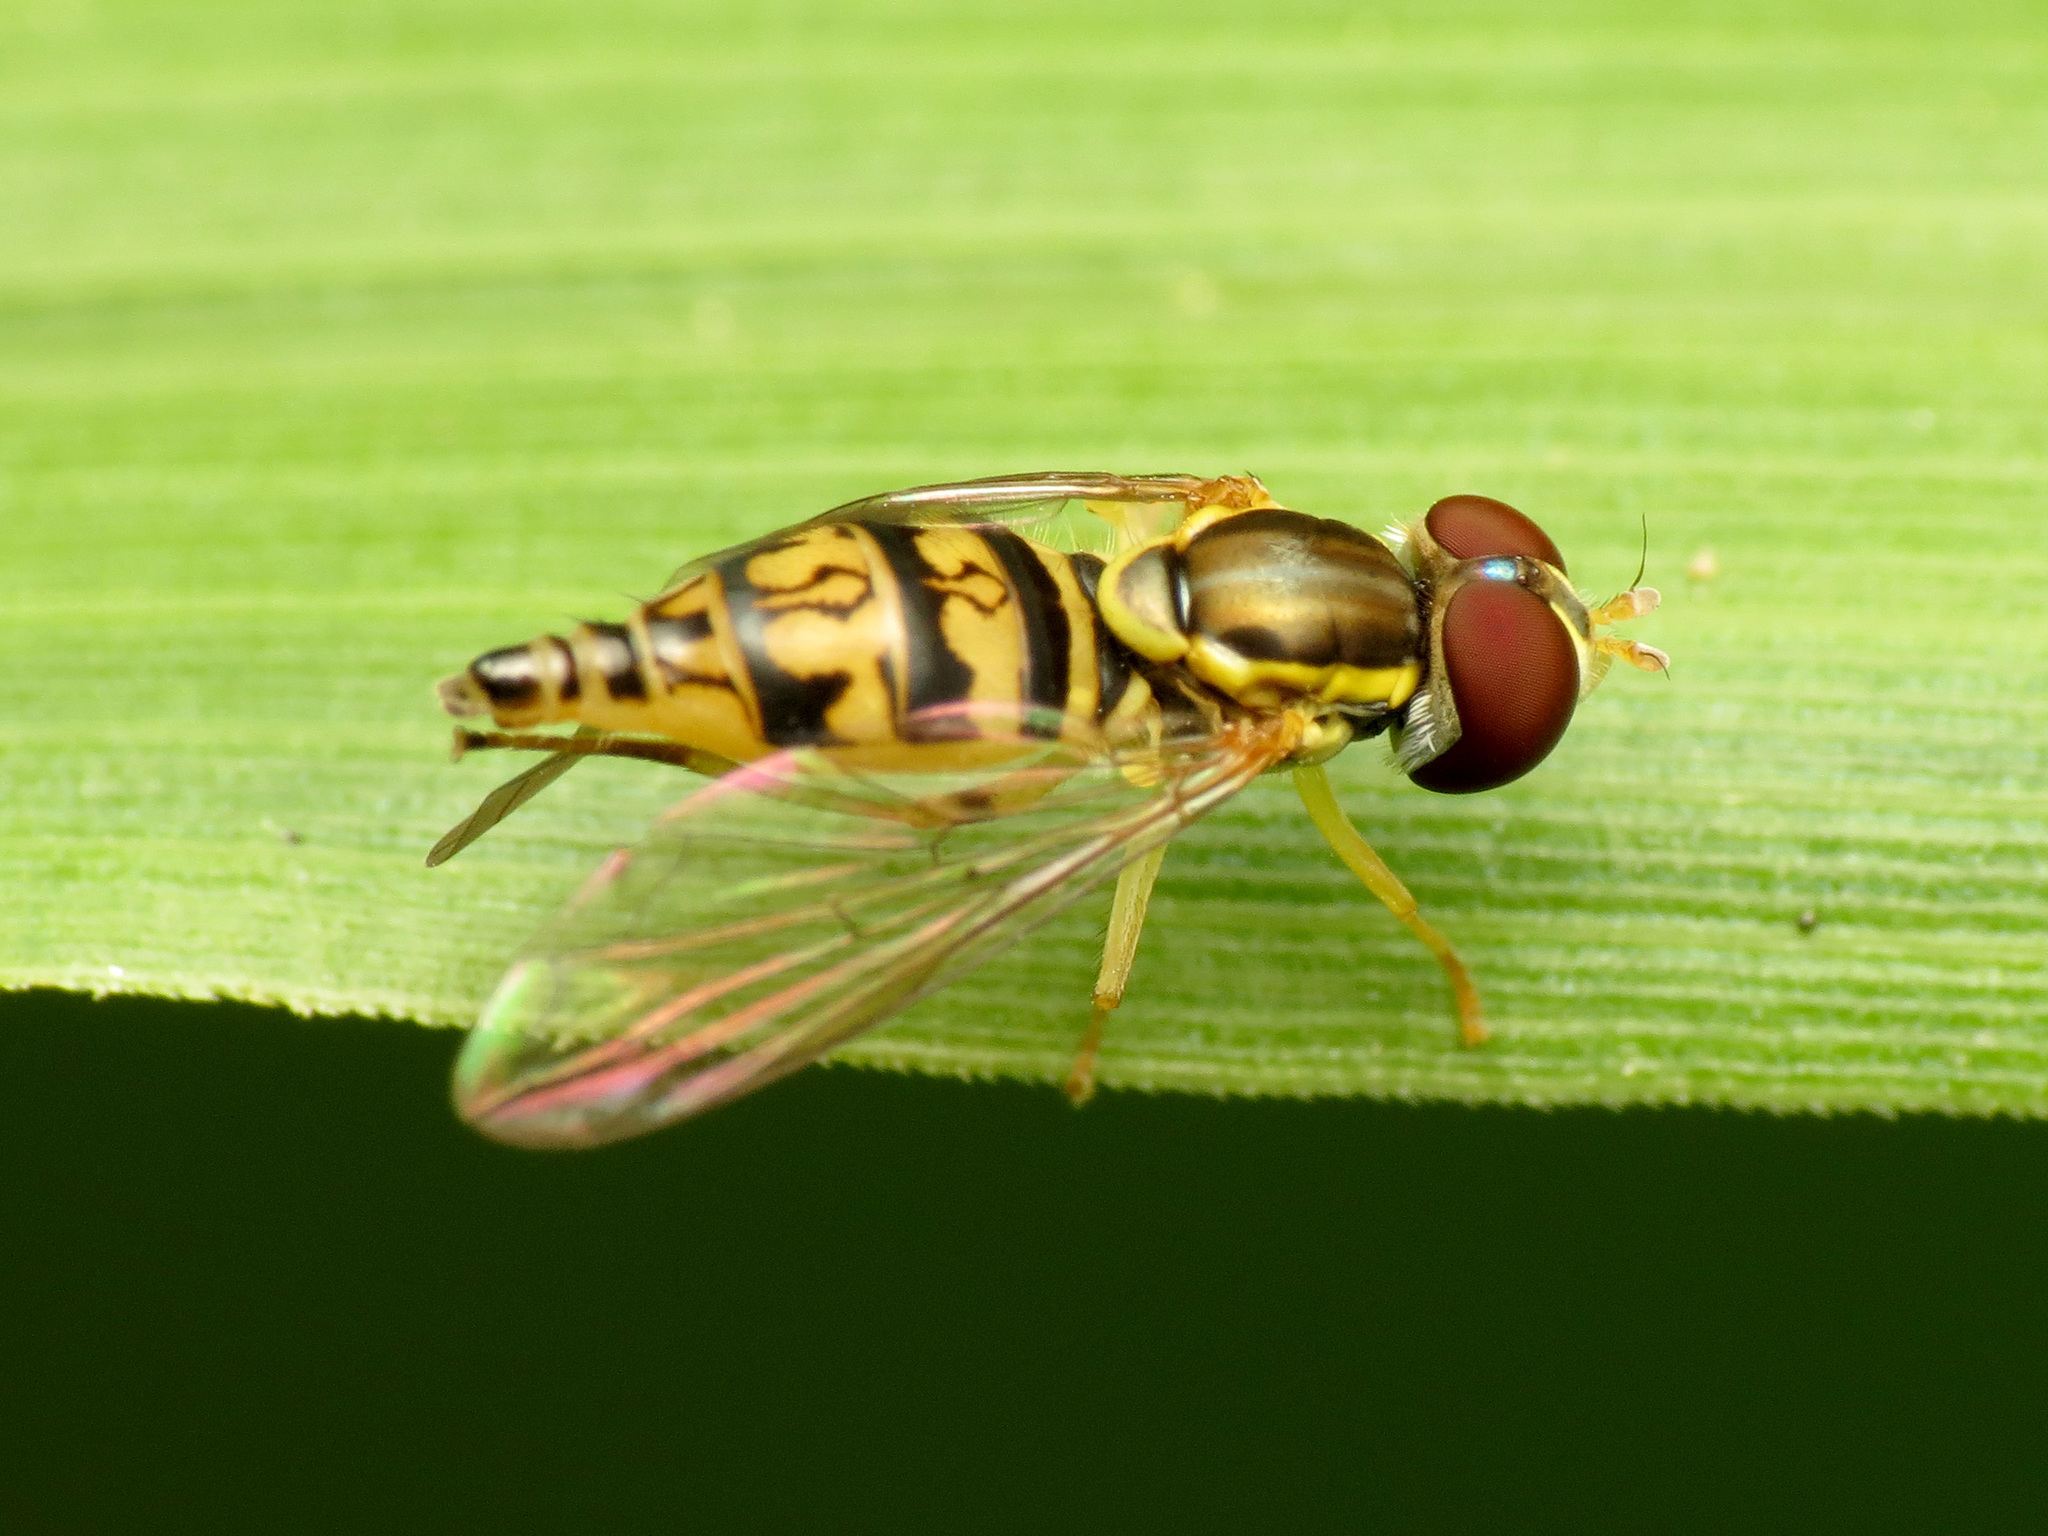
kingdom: Animalia
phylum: Arthropoda
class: Insecta
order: Diptera
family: Syrphidae
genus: Toxomerus
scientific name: Toxomerus geminatus
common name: Eastern calligrapher
